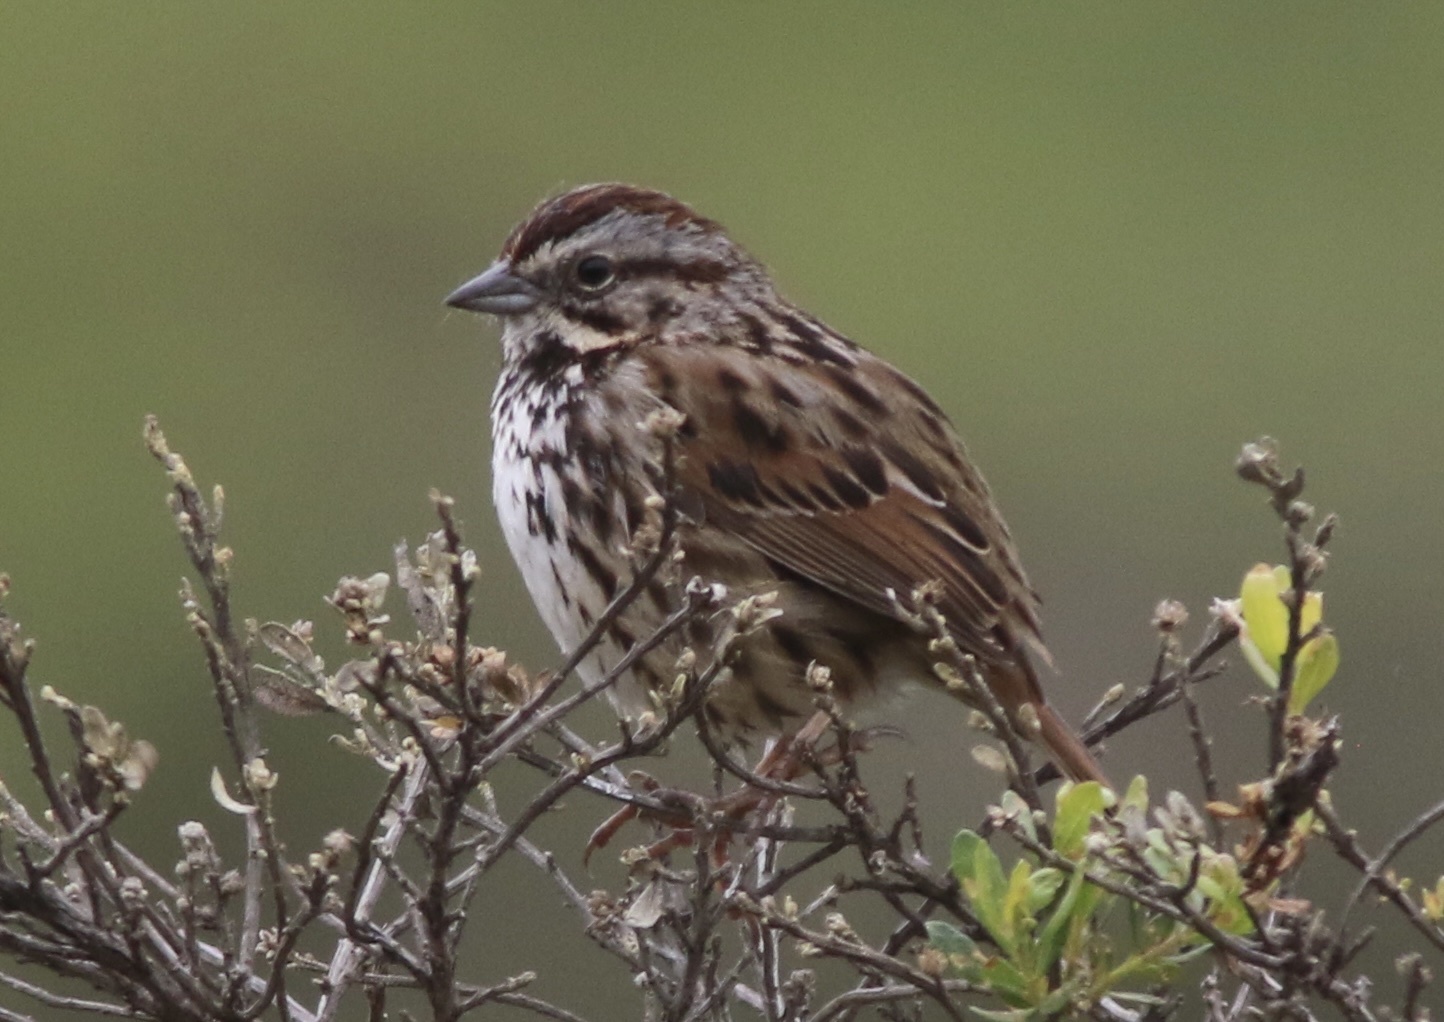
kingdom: Animalia
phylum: Chordata
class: Aves
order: Passeriformes
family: Passerellidae
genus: Melospiza
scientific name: Melospiza melodia
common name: Song sparrow
